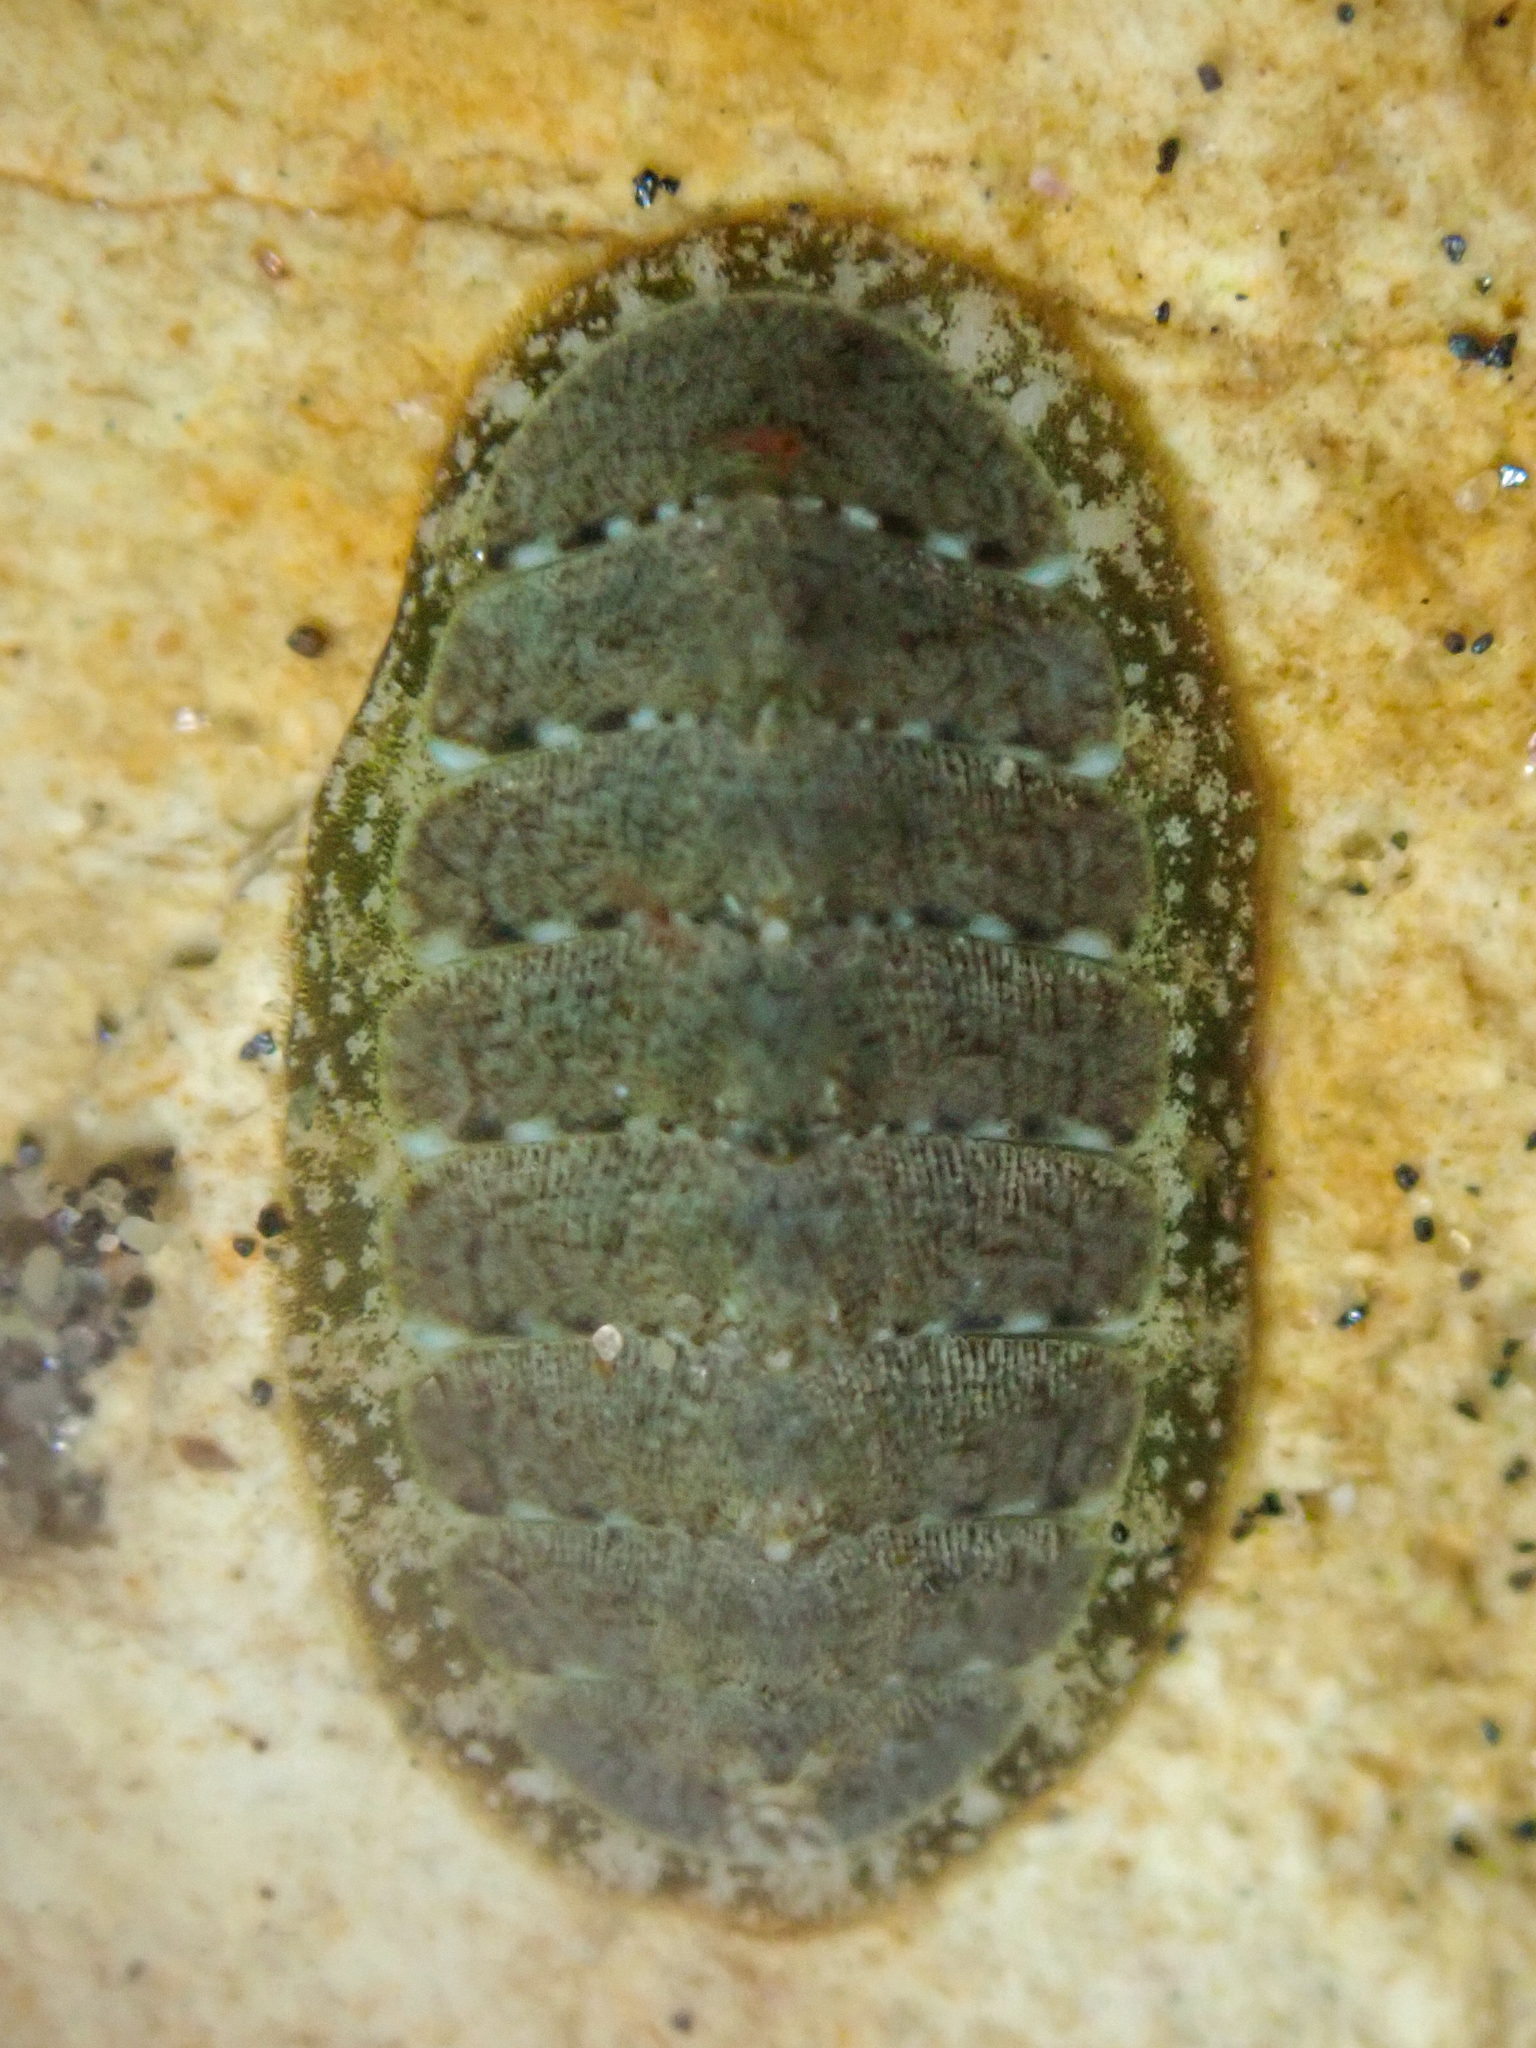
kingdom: Animalia
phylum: Mollusca
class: Polyplacophora
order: Chitonida
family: Tonicellidae
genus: Cyanoplax
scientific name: Cyanoplax keepiana
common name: Keep's chiton
